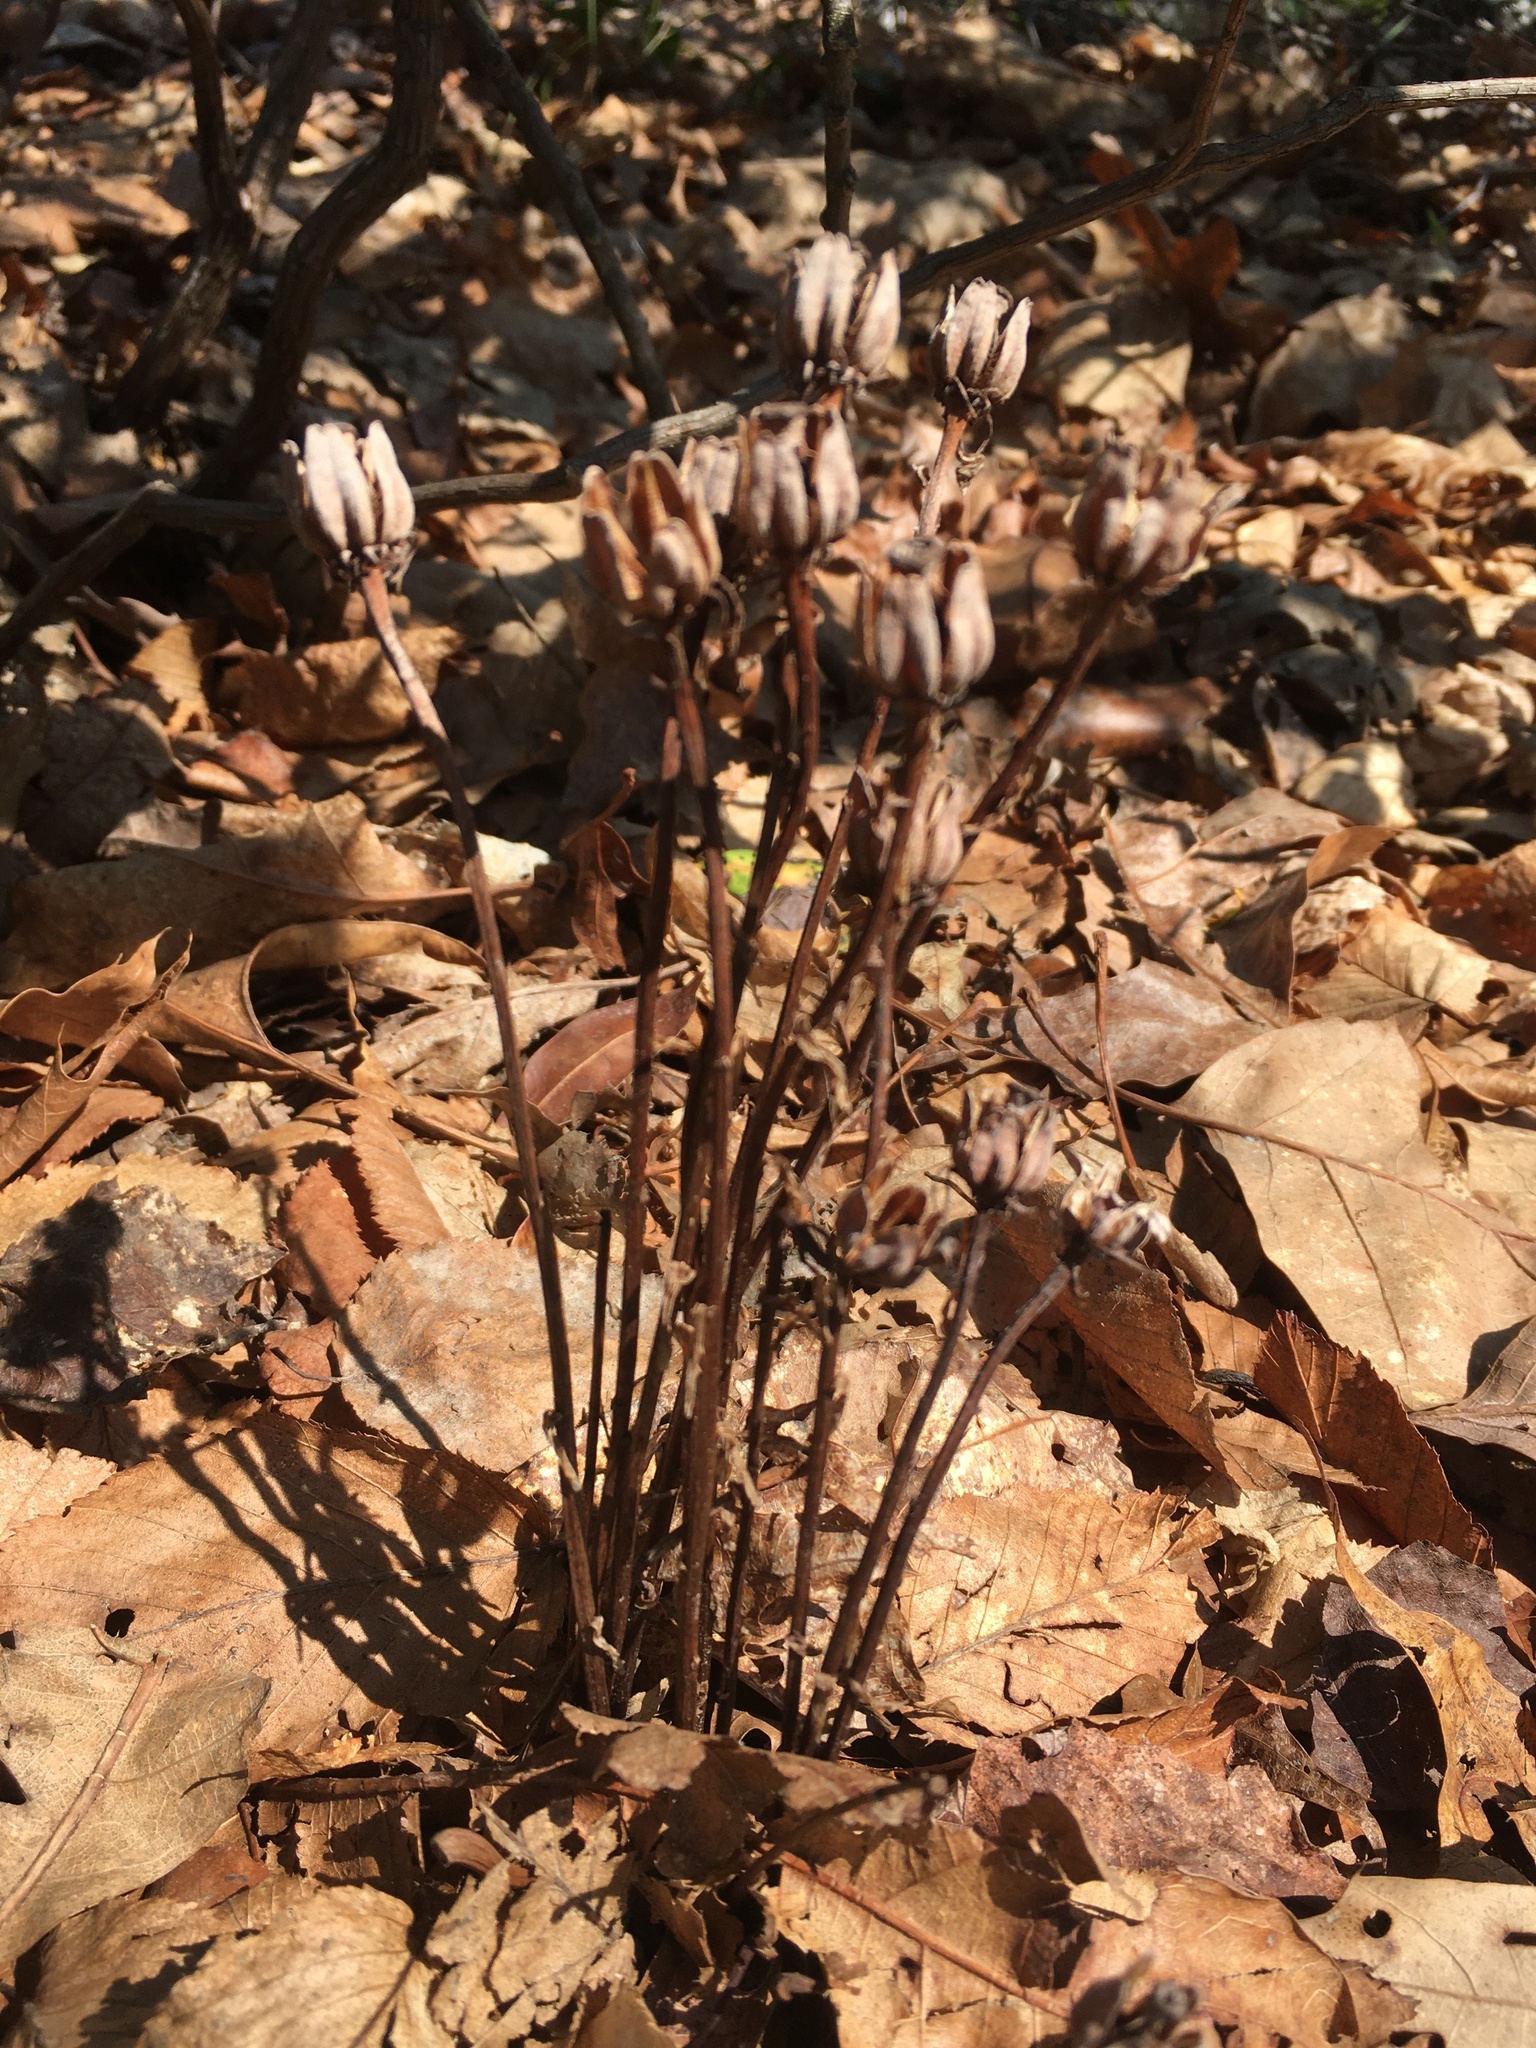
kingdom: Plantae
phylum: Tracheophyta
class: Magnoliopsida
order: Ericales
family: Ericaceae
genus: Monotropa
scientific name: Monotropa uniflora
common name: Convulsion root
